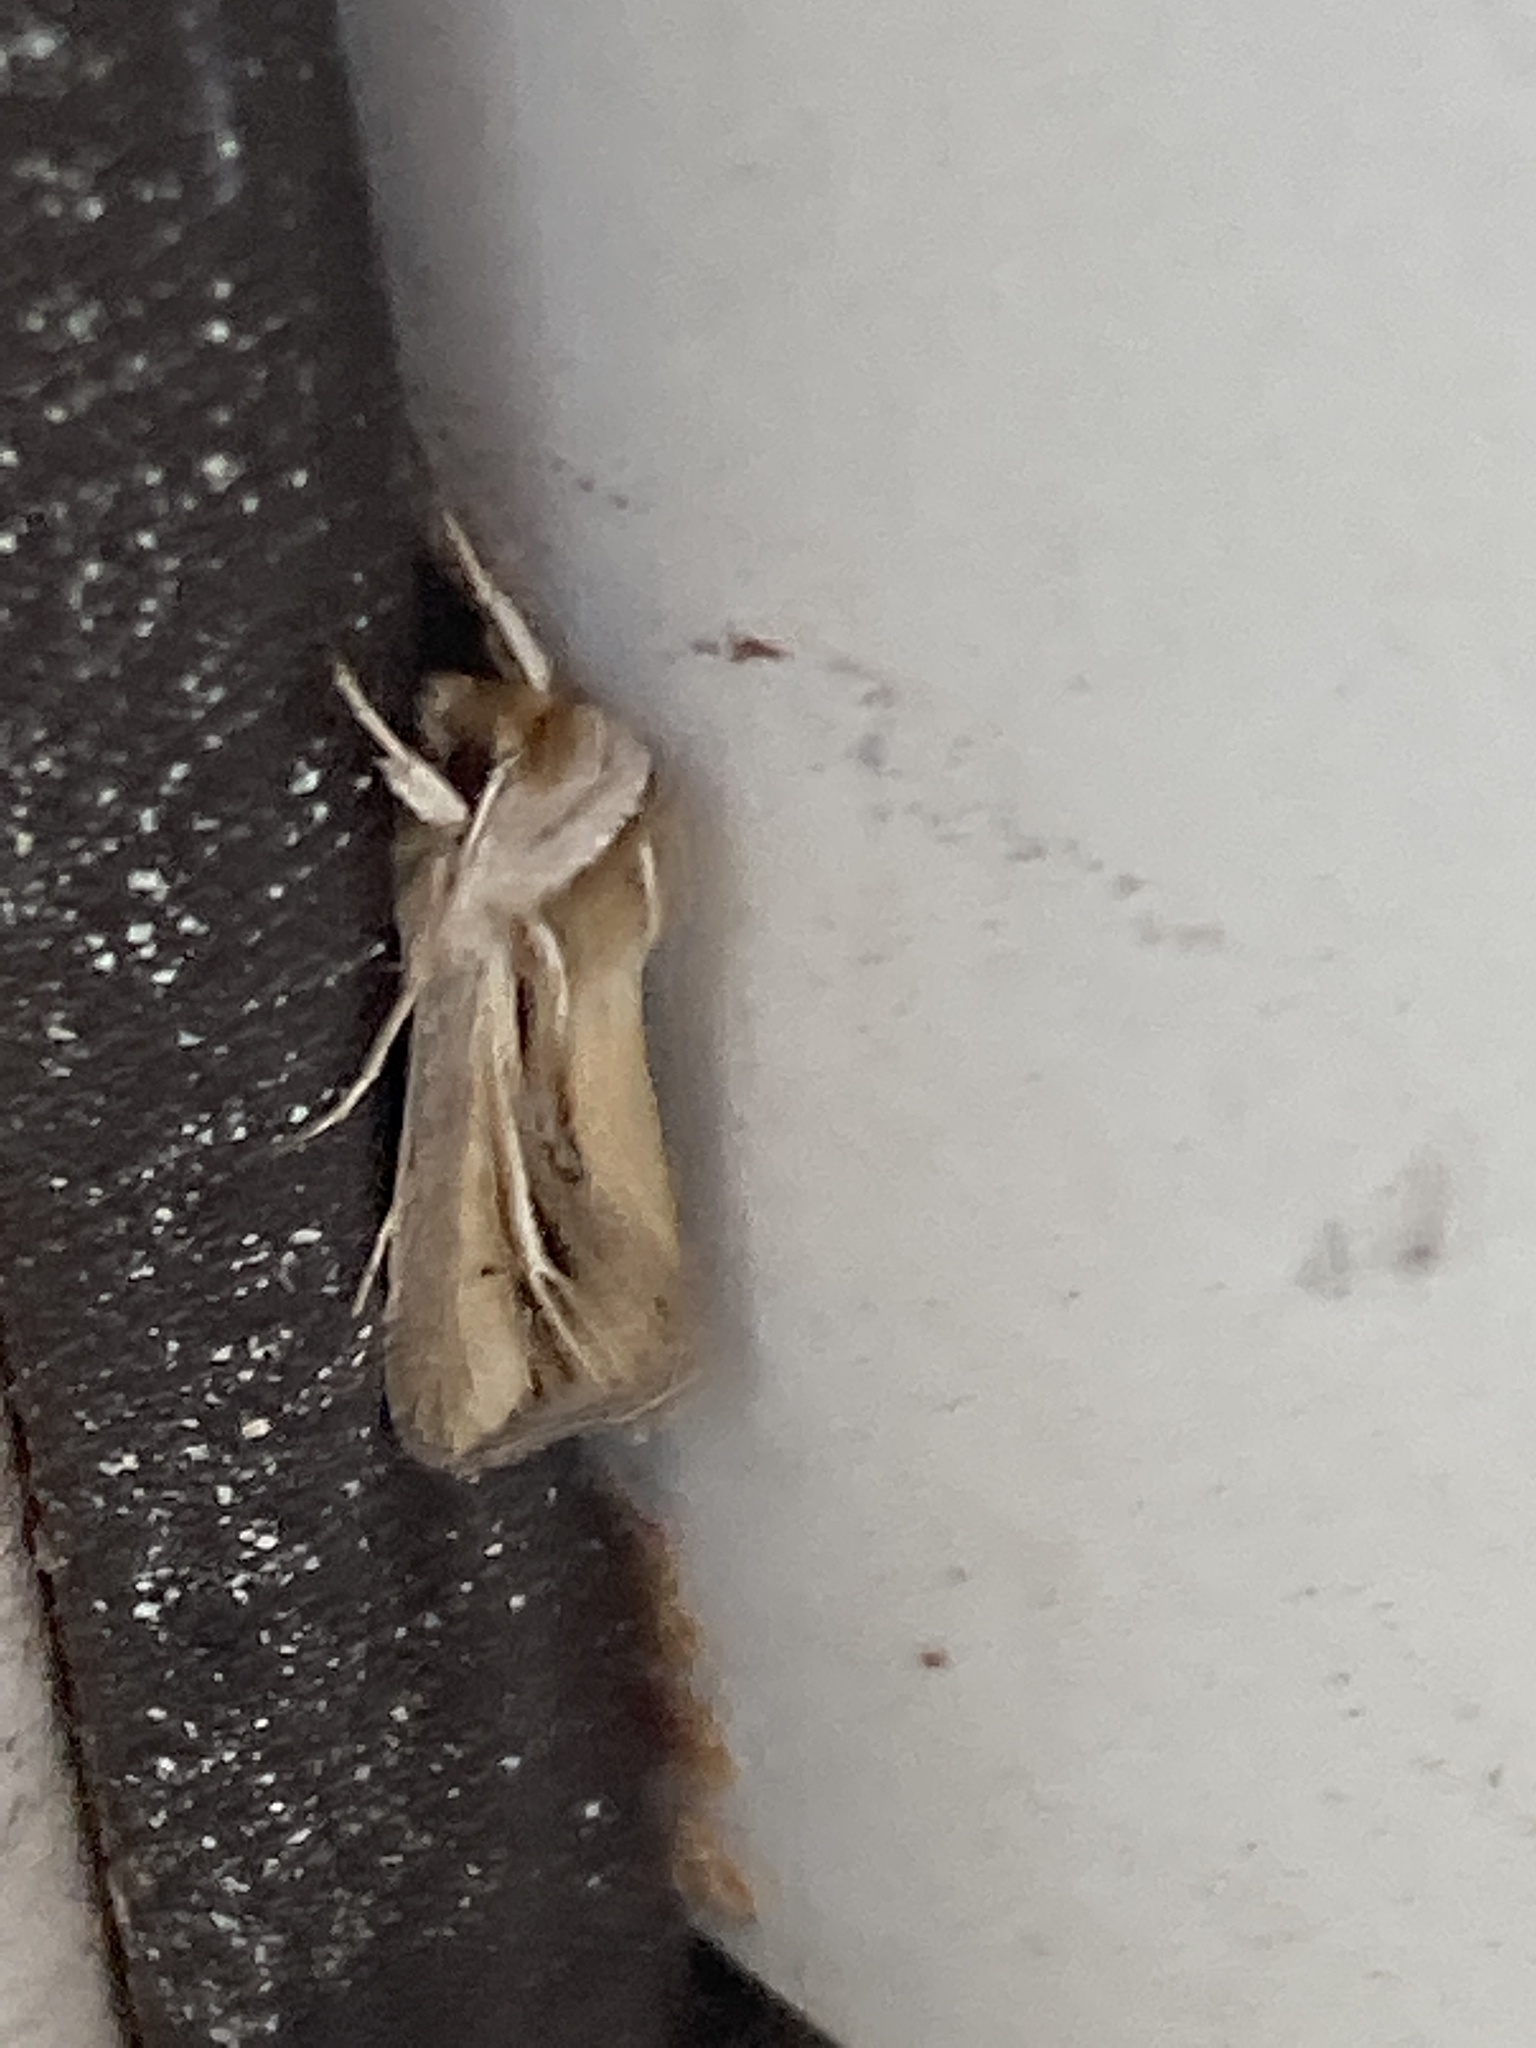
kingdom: Animalia
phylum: Arthropoda
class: Insecta
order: Lepidoptera
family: Noctuidae
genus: Dargida
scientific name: Dargida diffusa
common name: Wheat head armyworm
